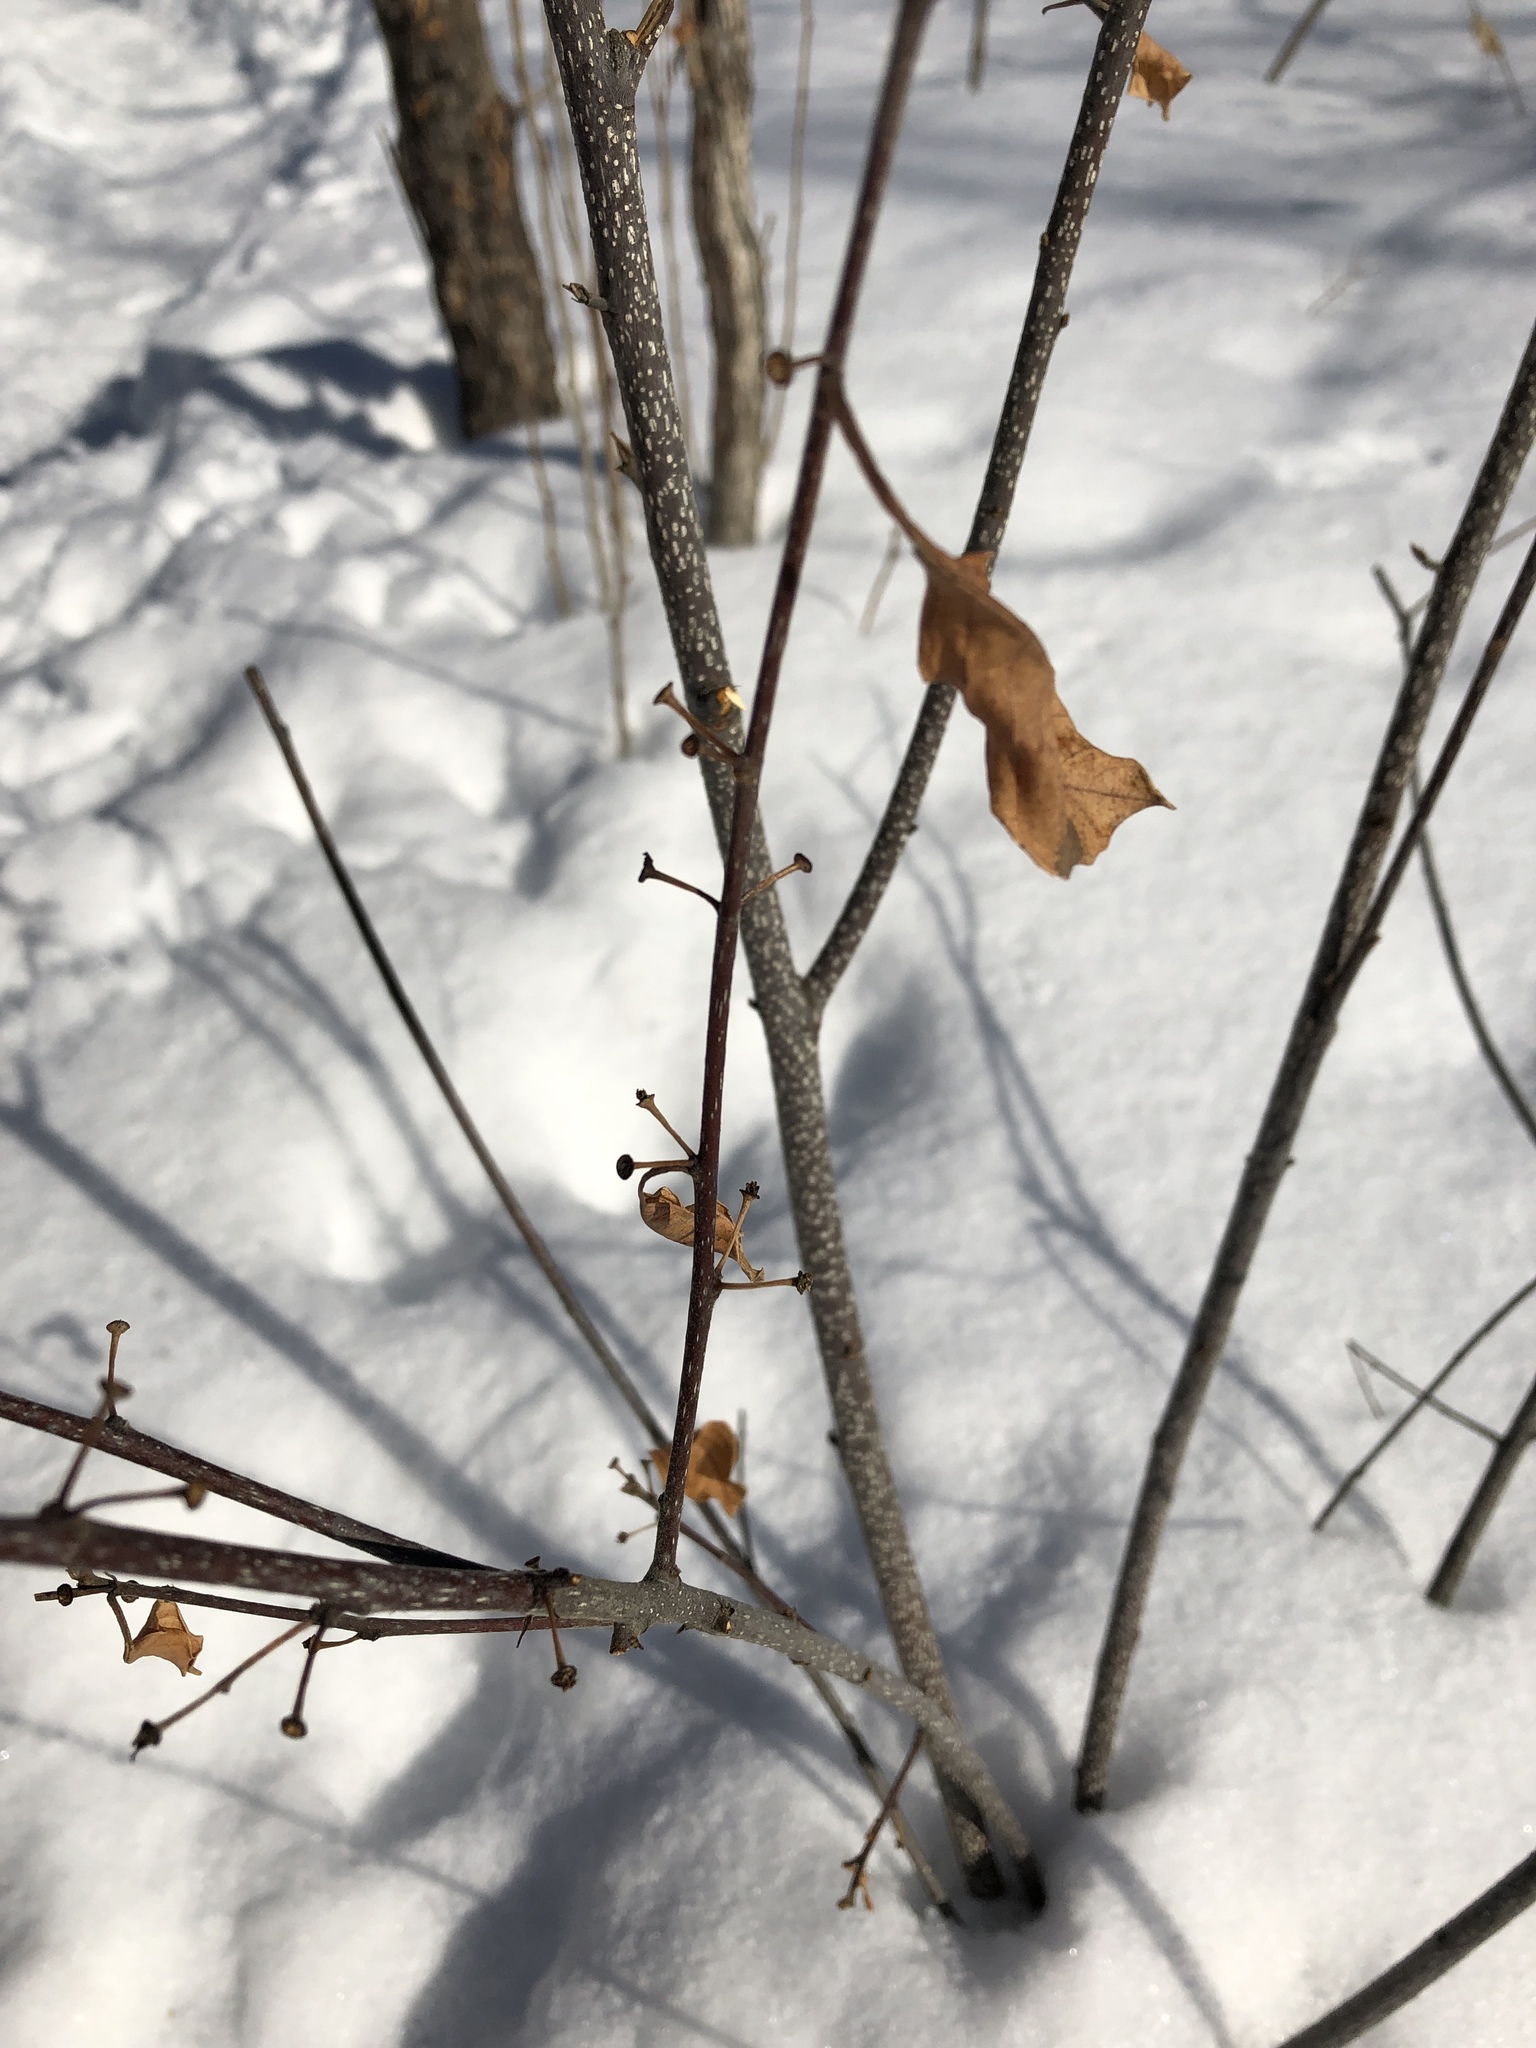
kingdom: Plantae
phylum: Tracheophyta
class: Magnoliopsida
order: Rosales
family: Rhamnaceae
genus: Frangula
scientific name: Frangula alnus
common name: Alder buckthorn
